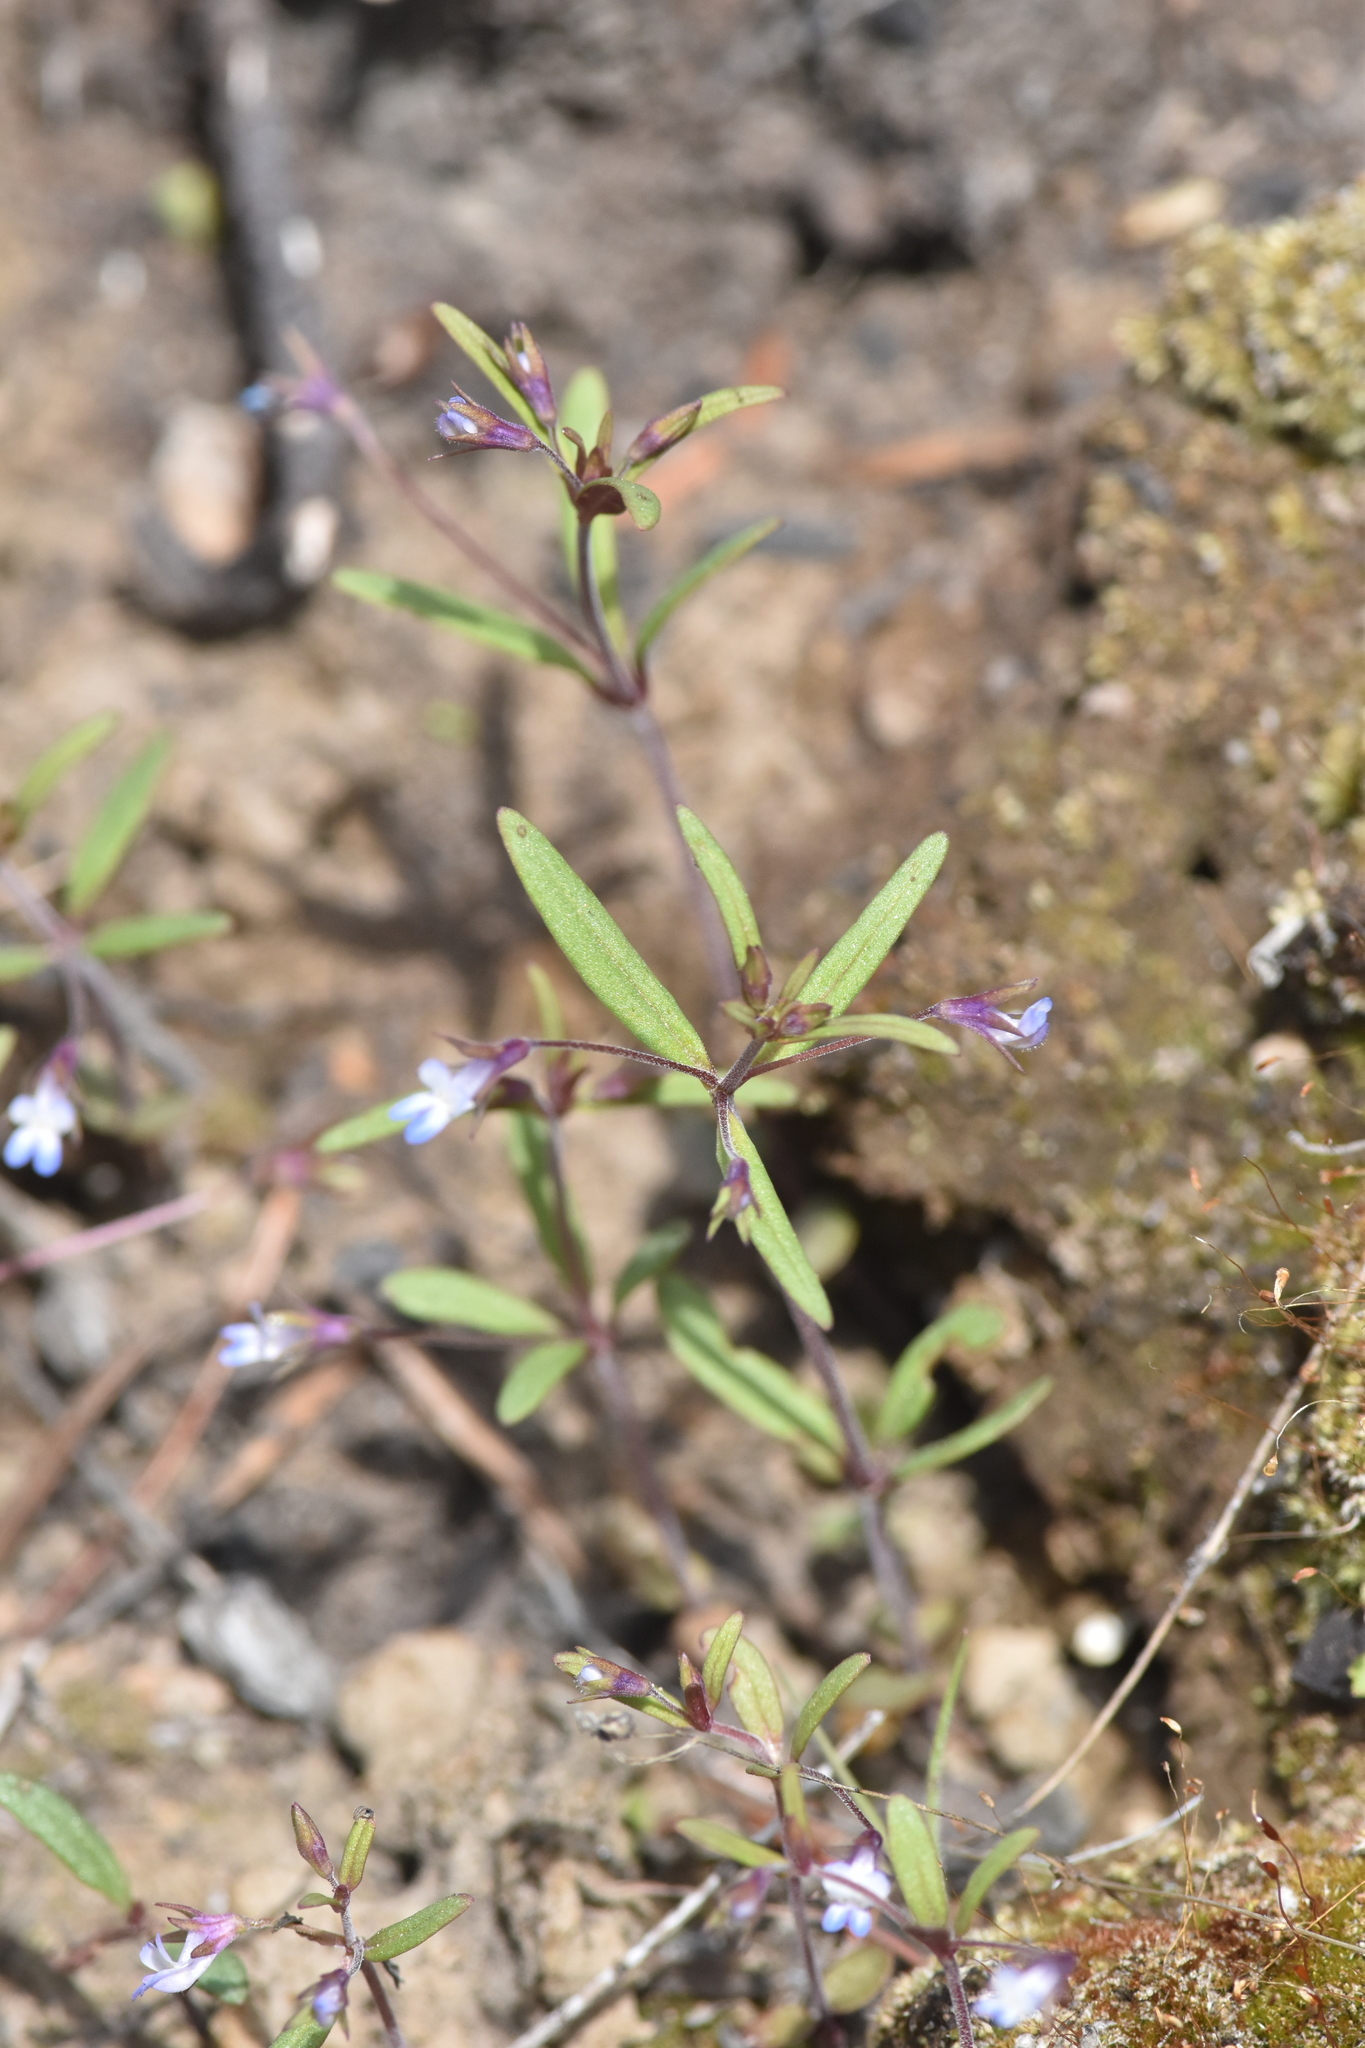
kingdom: Plantae
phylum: Tracheophyta
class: Magnoliopsida
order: Lamiales
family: Plantaginaceae
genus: Collinsia
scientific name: Collinsia parviflora
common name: Blue-lips
